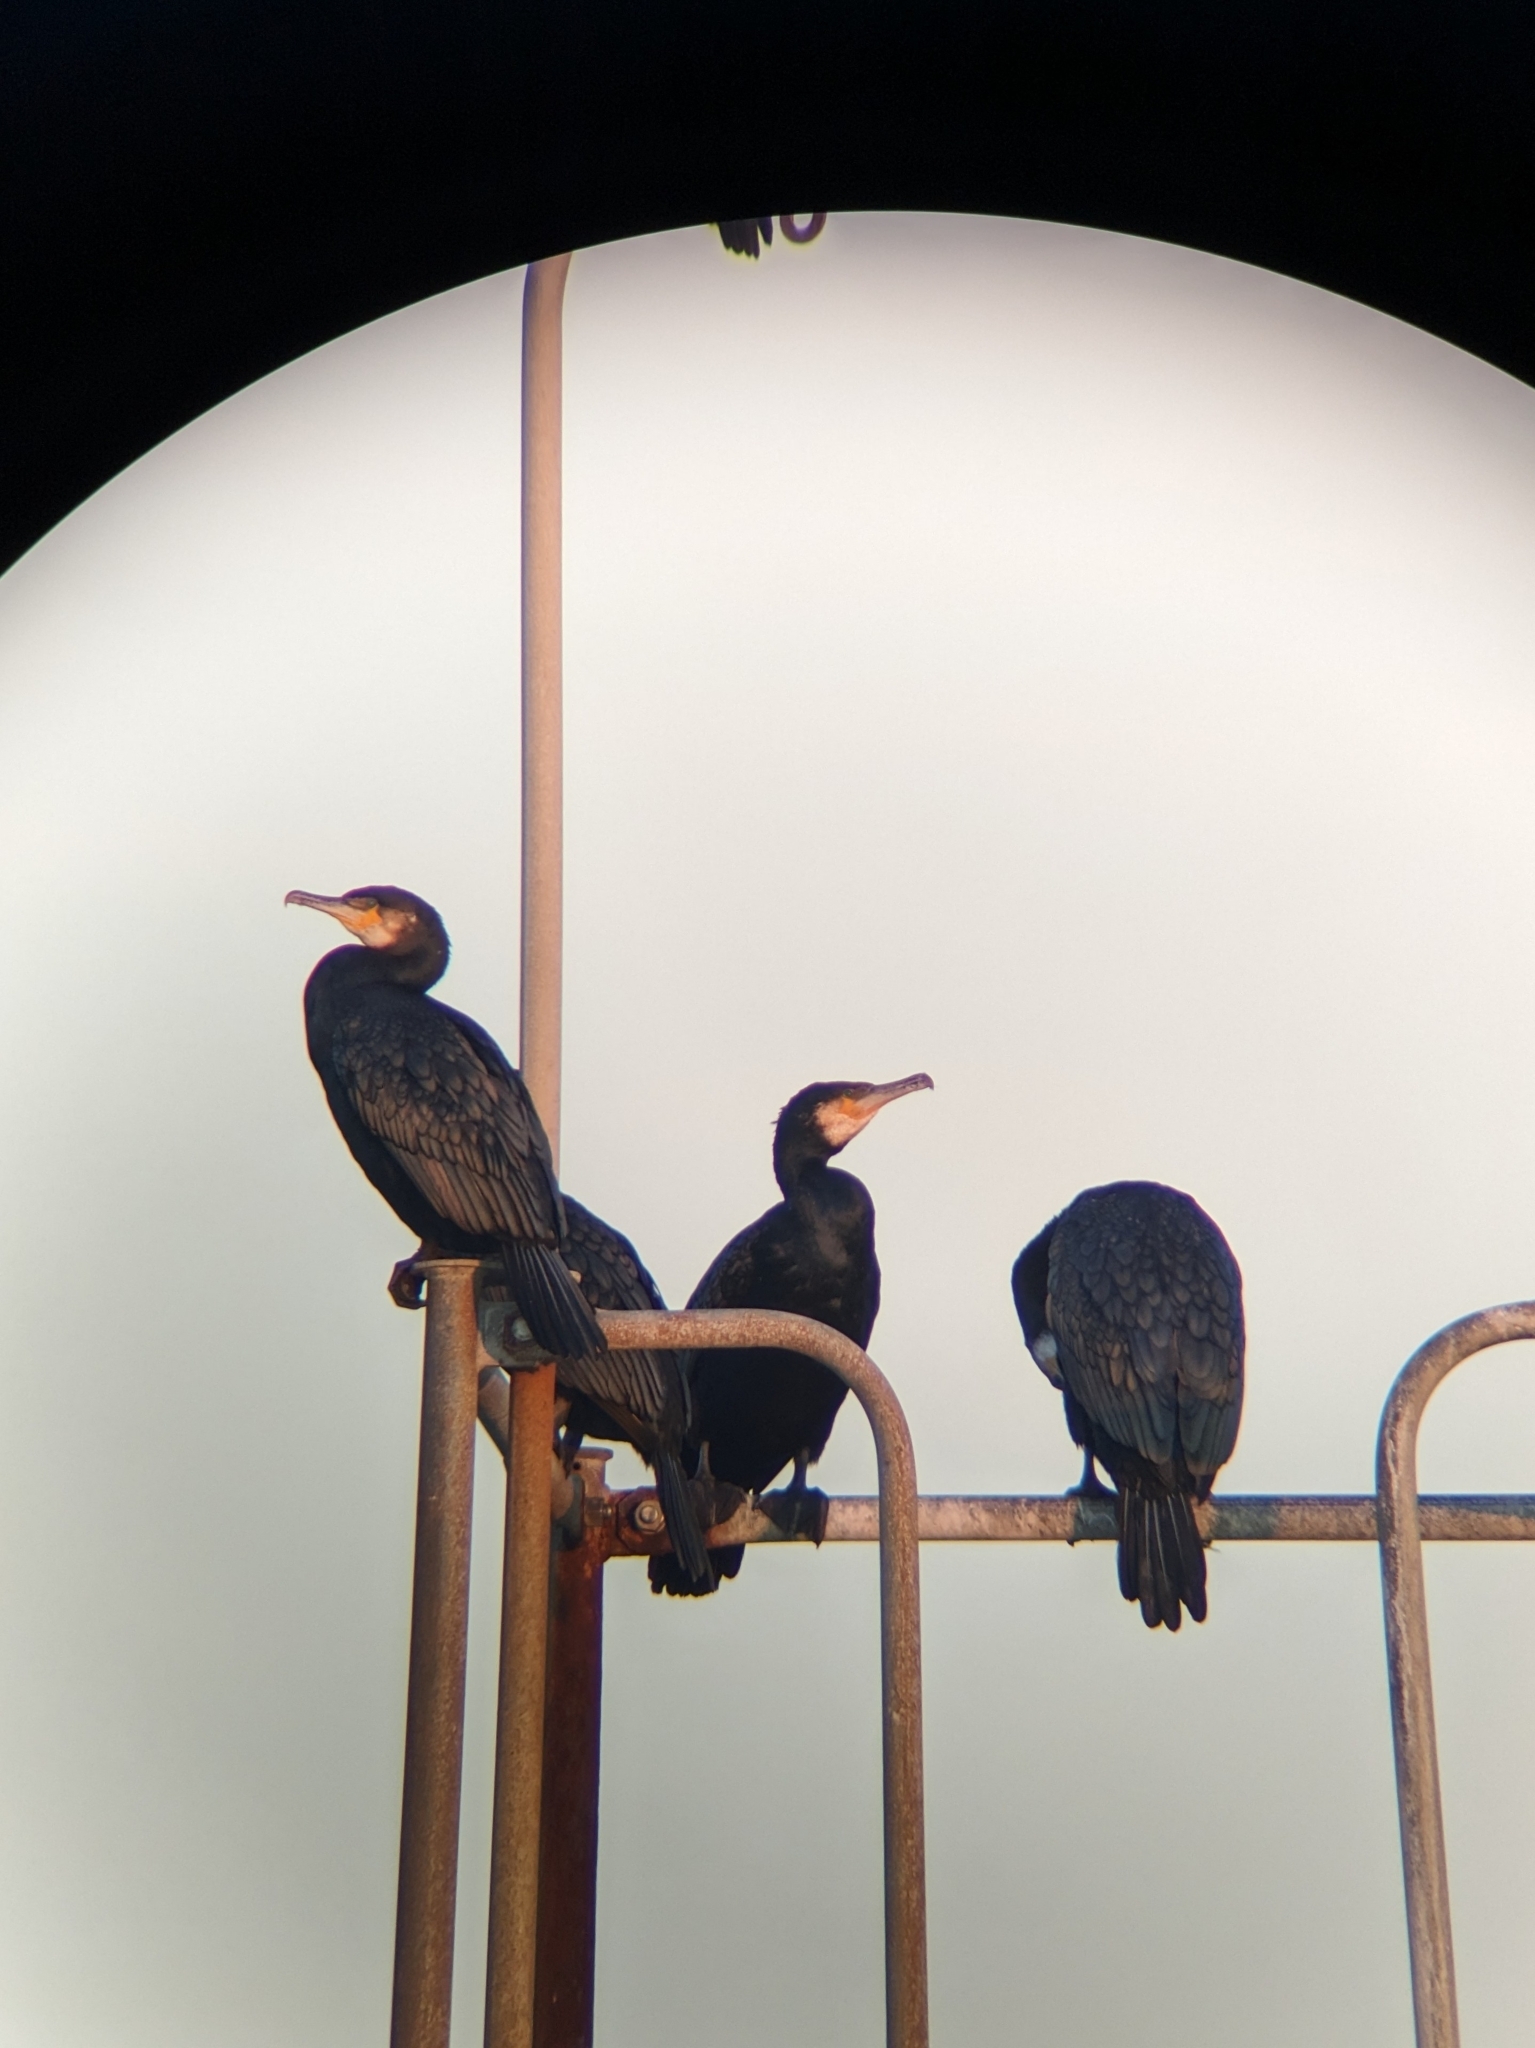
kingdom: Animalia
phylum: Chordata
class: Aves
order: Suliformes
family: Phalacrocoracidae
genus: Phalacrocorax
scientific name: Phalacrocorax carbo
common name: Great cormorant
